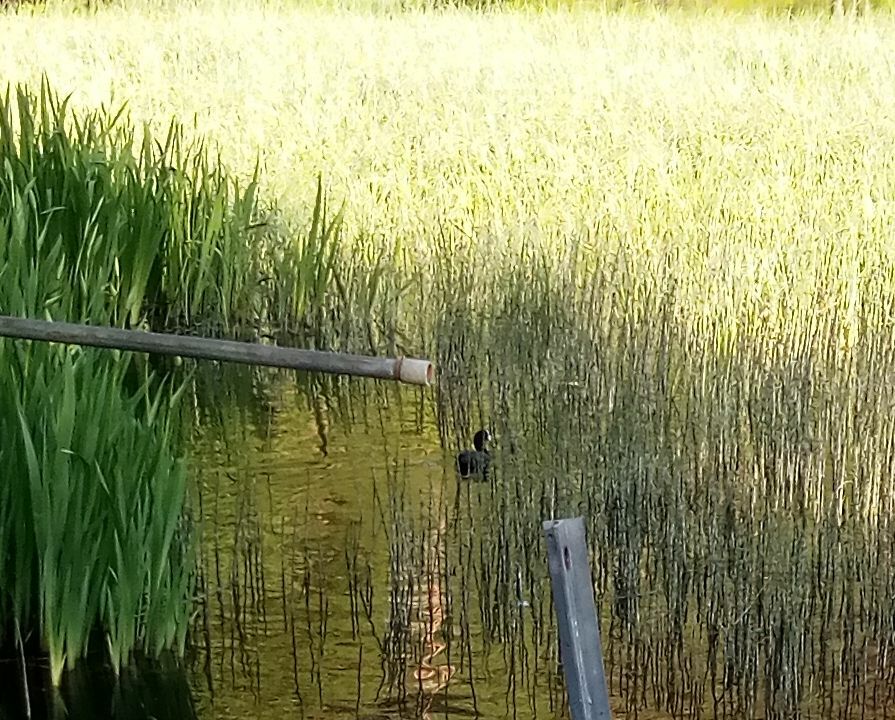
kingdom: Animalia
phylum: Chordata
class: Aves
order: Gruiformes
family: Rallidae
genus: Fulica
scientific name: Fulica atra
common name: Eurasian coot
